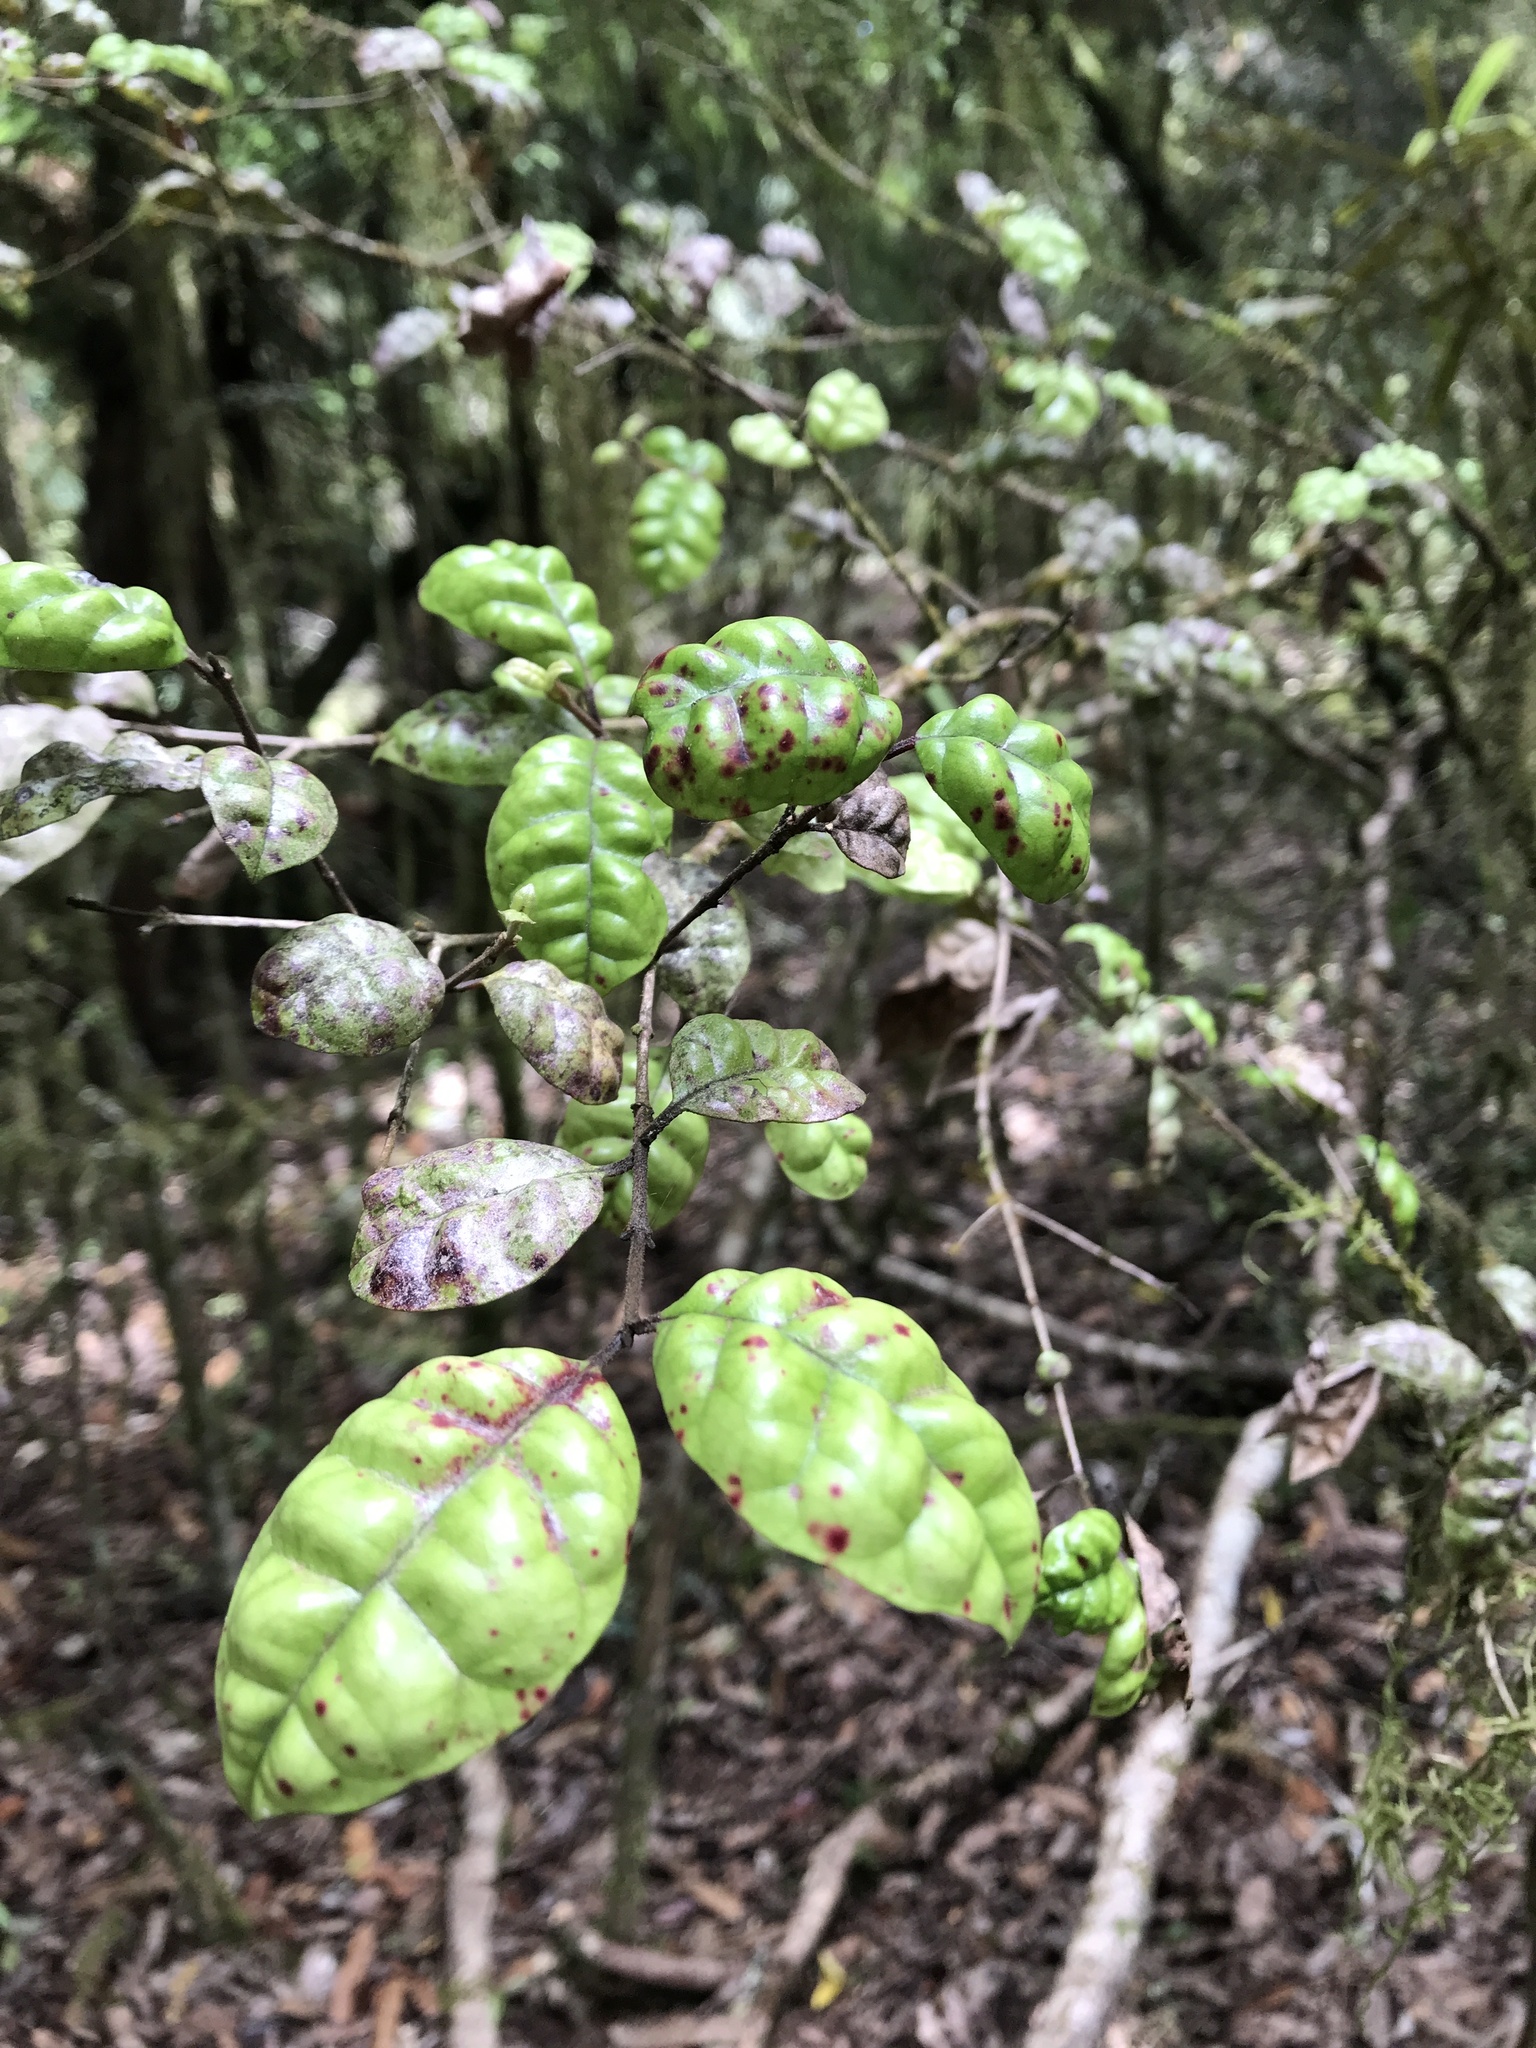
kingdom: Plantae
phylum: Tracheophyta
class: Magnoliopsida
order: Myrtales
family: Myrtaceae
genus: Lophomyrtus
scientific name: Lophomyrtus bullata
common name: Rama rama
